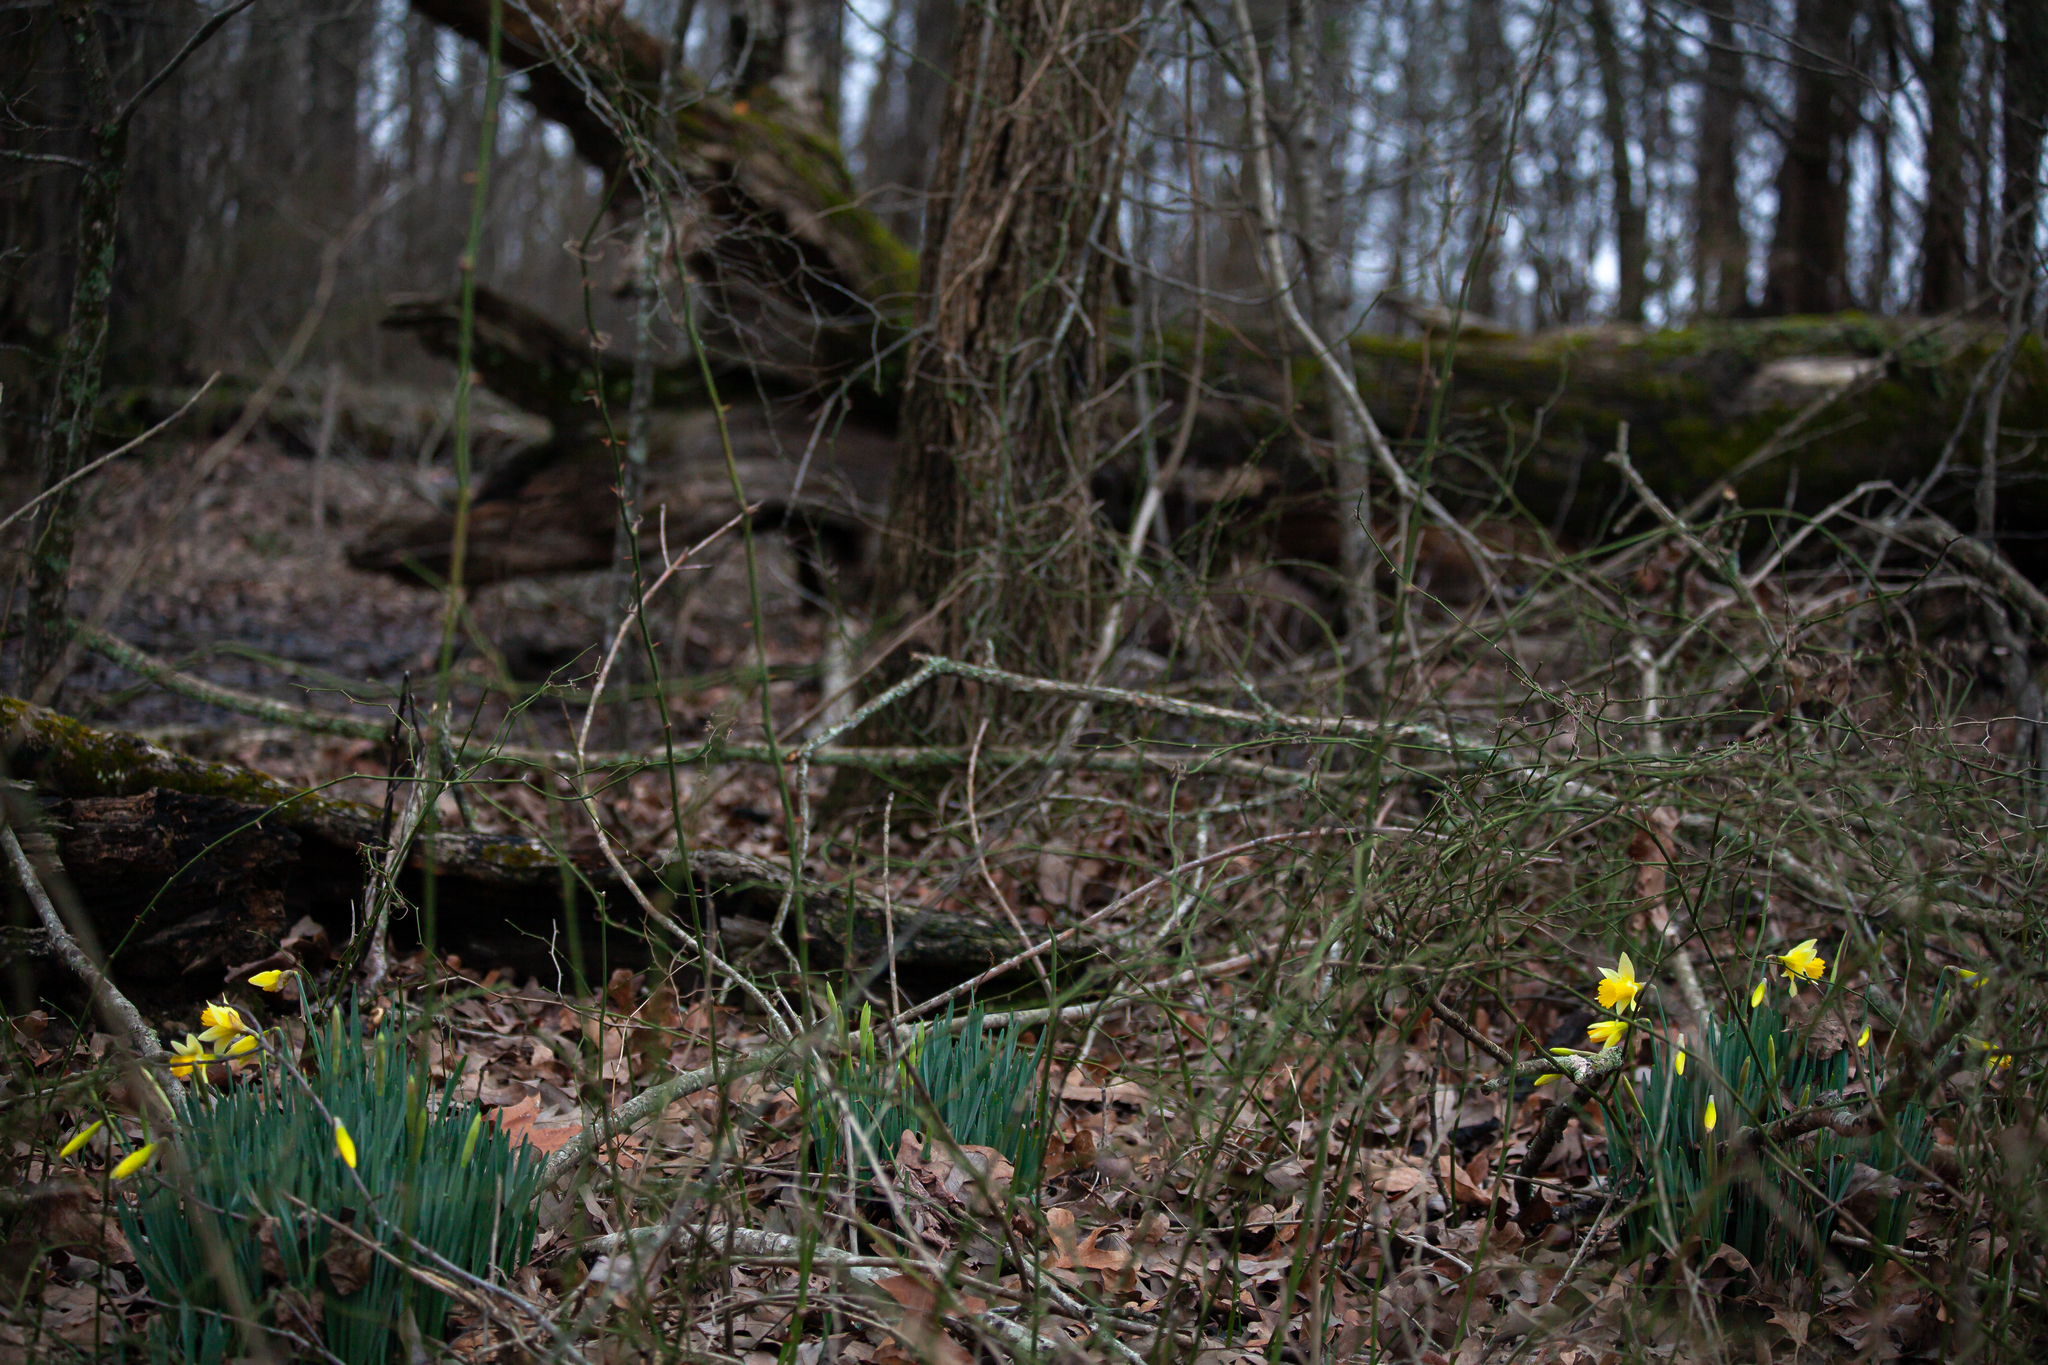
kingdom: Plantae
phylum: Tracheophyta
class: Liliopsida
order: Asparagales
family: Amaryllidaceae
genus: Narcissus
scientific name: Narcissus pseudonarcissus
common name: Daffodil
